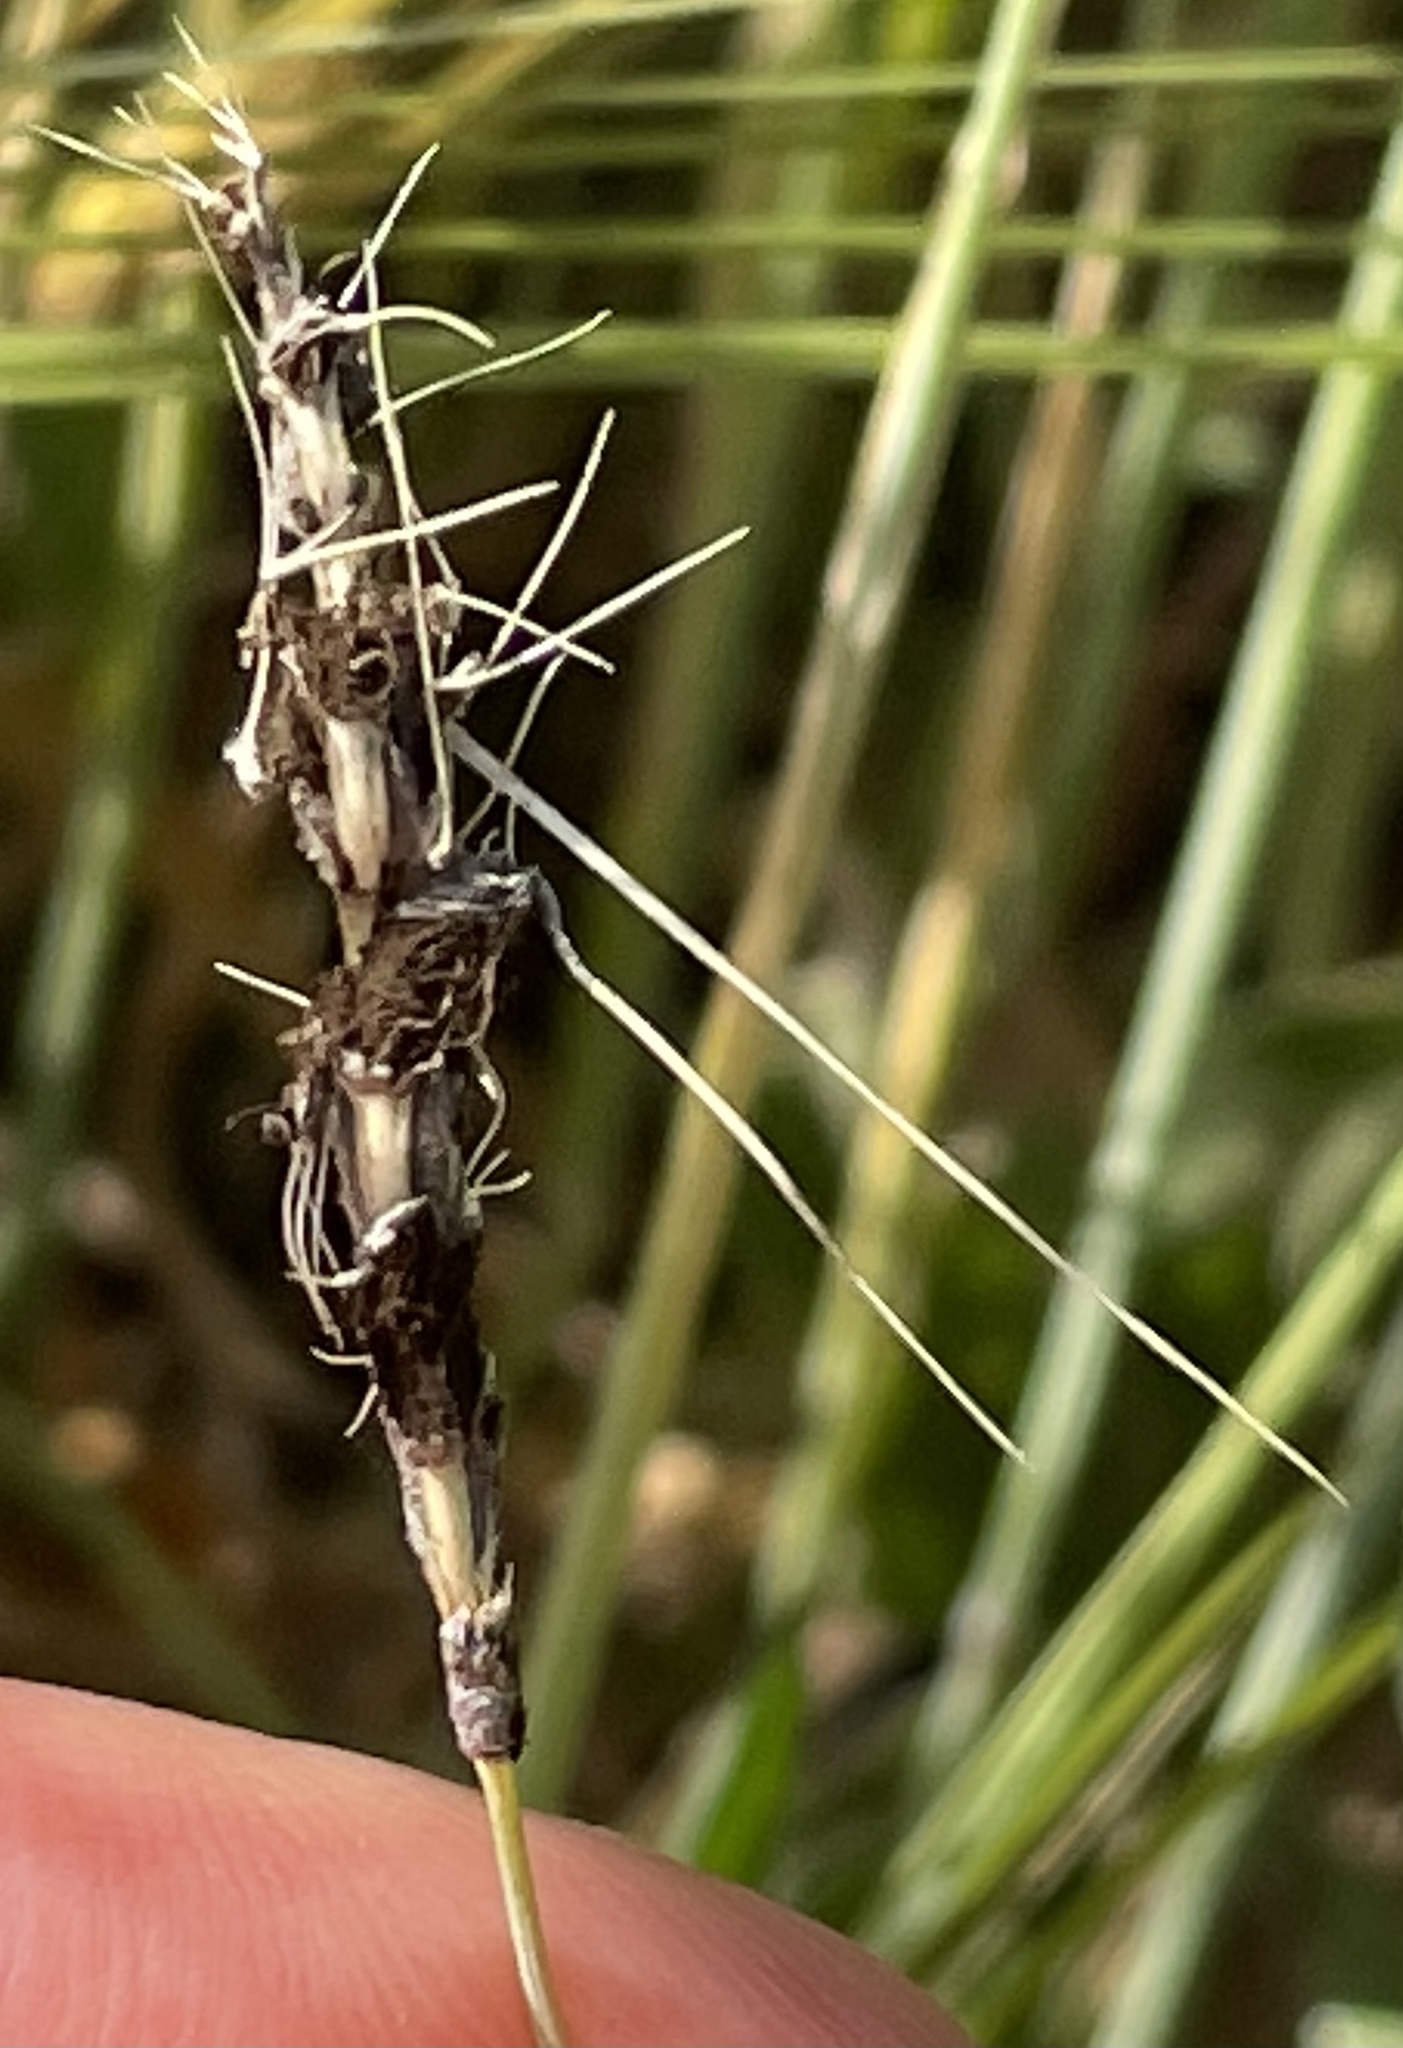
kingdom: Fungi
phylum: Basidiomycota
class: Ustilaginomycetes
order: Ustilaginales
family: Ustilaginaceae
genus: Ustilago
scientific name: Ustilago nuda
